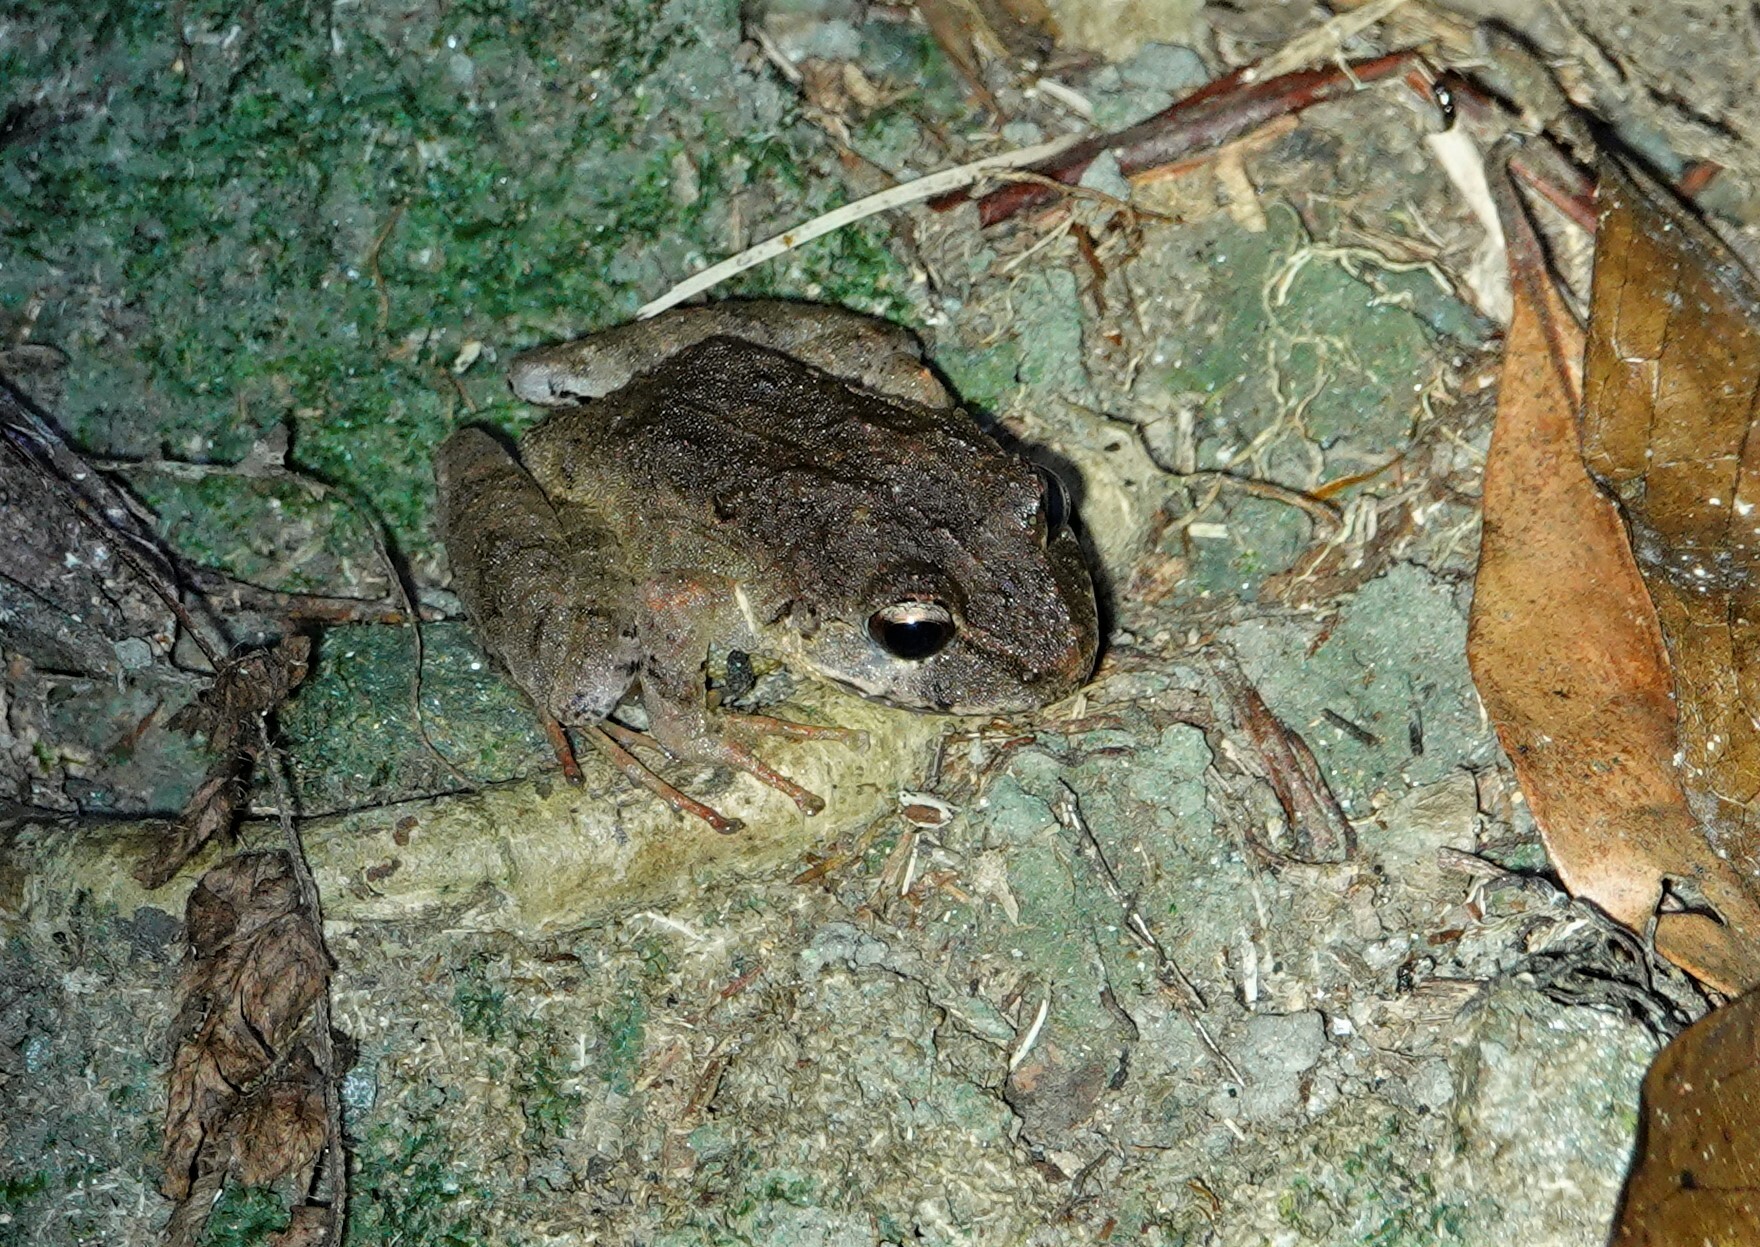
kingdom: Animalia
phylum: Chordata
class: Amphibia
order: Anura
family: Craugastoridae
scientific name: Craugastoridae
